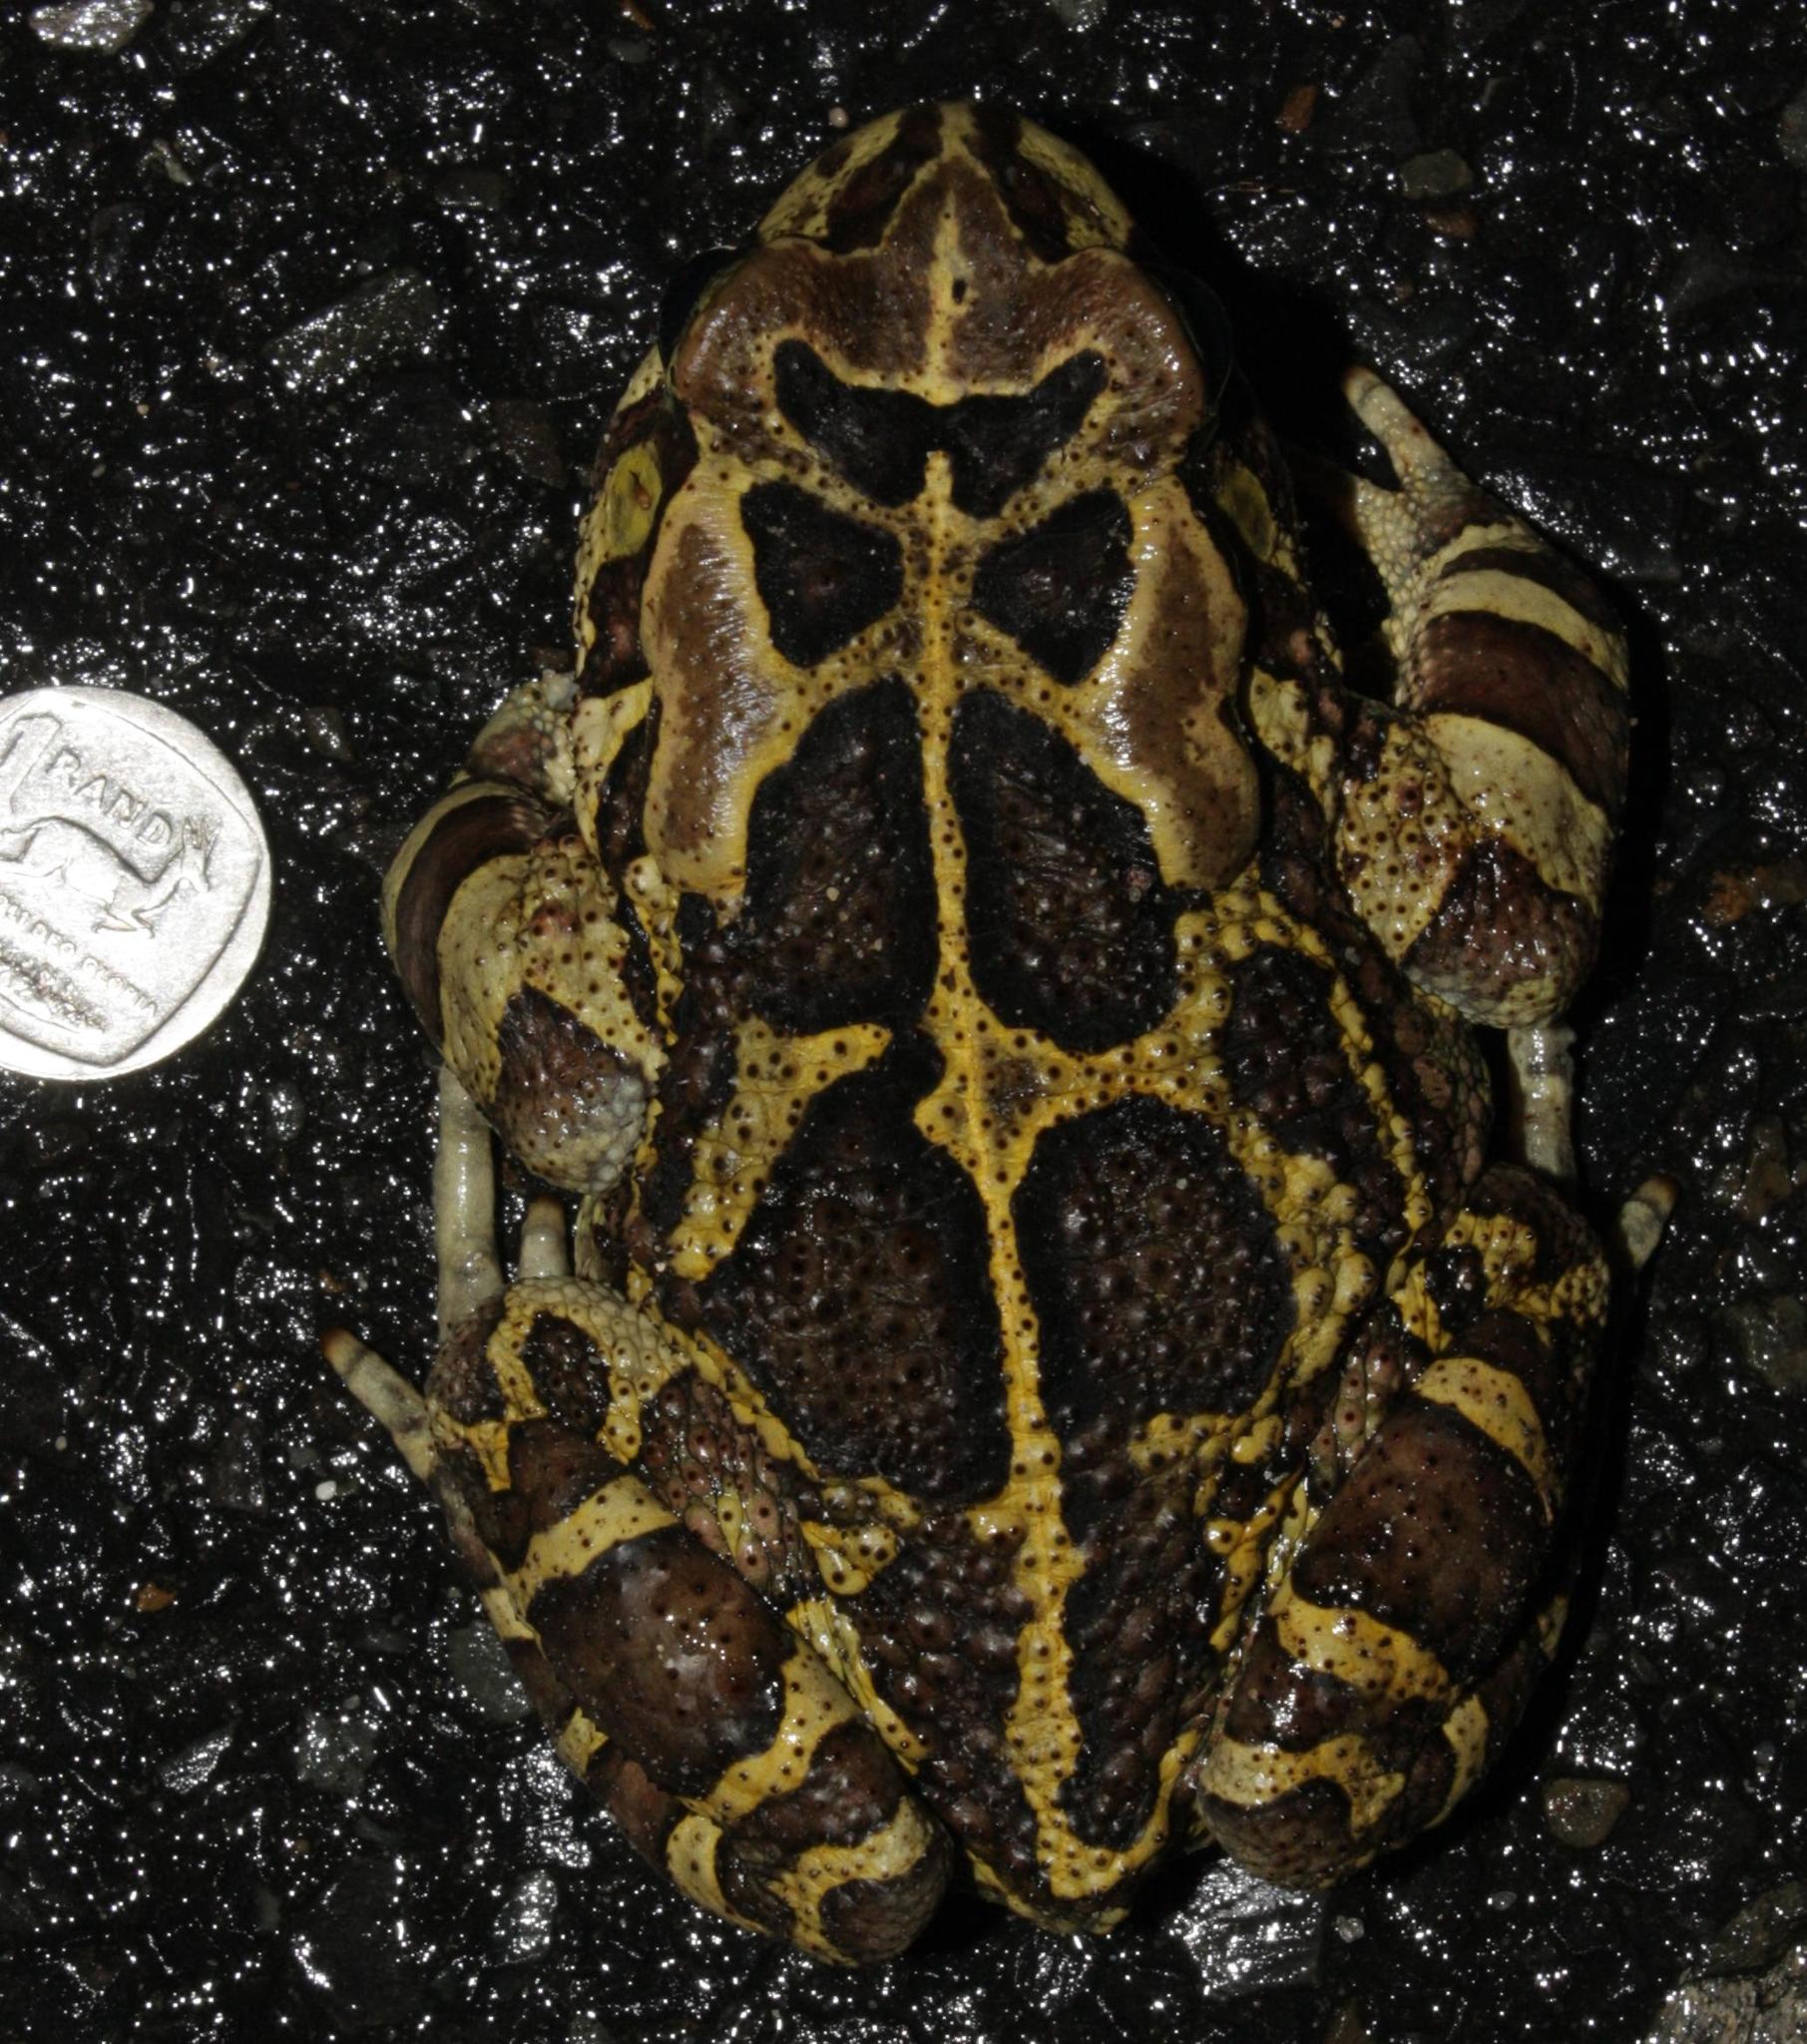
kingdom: Animalia
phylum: Chordata
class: Amphibia
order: Anura
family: Bufonidae
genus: Sclerophrys
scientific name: Sclerophrys pantherina
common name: Panther toad
